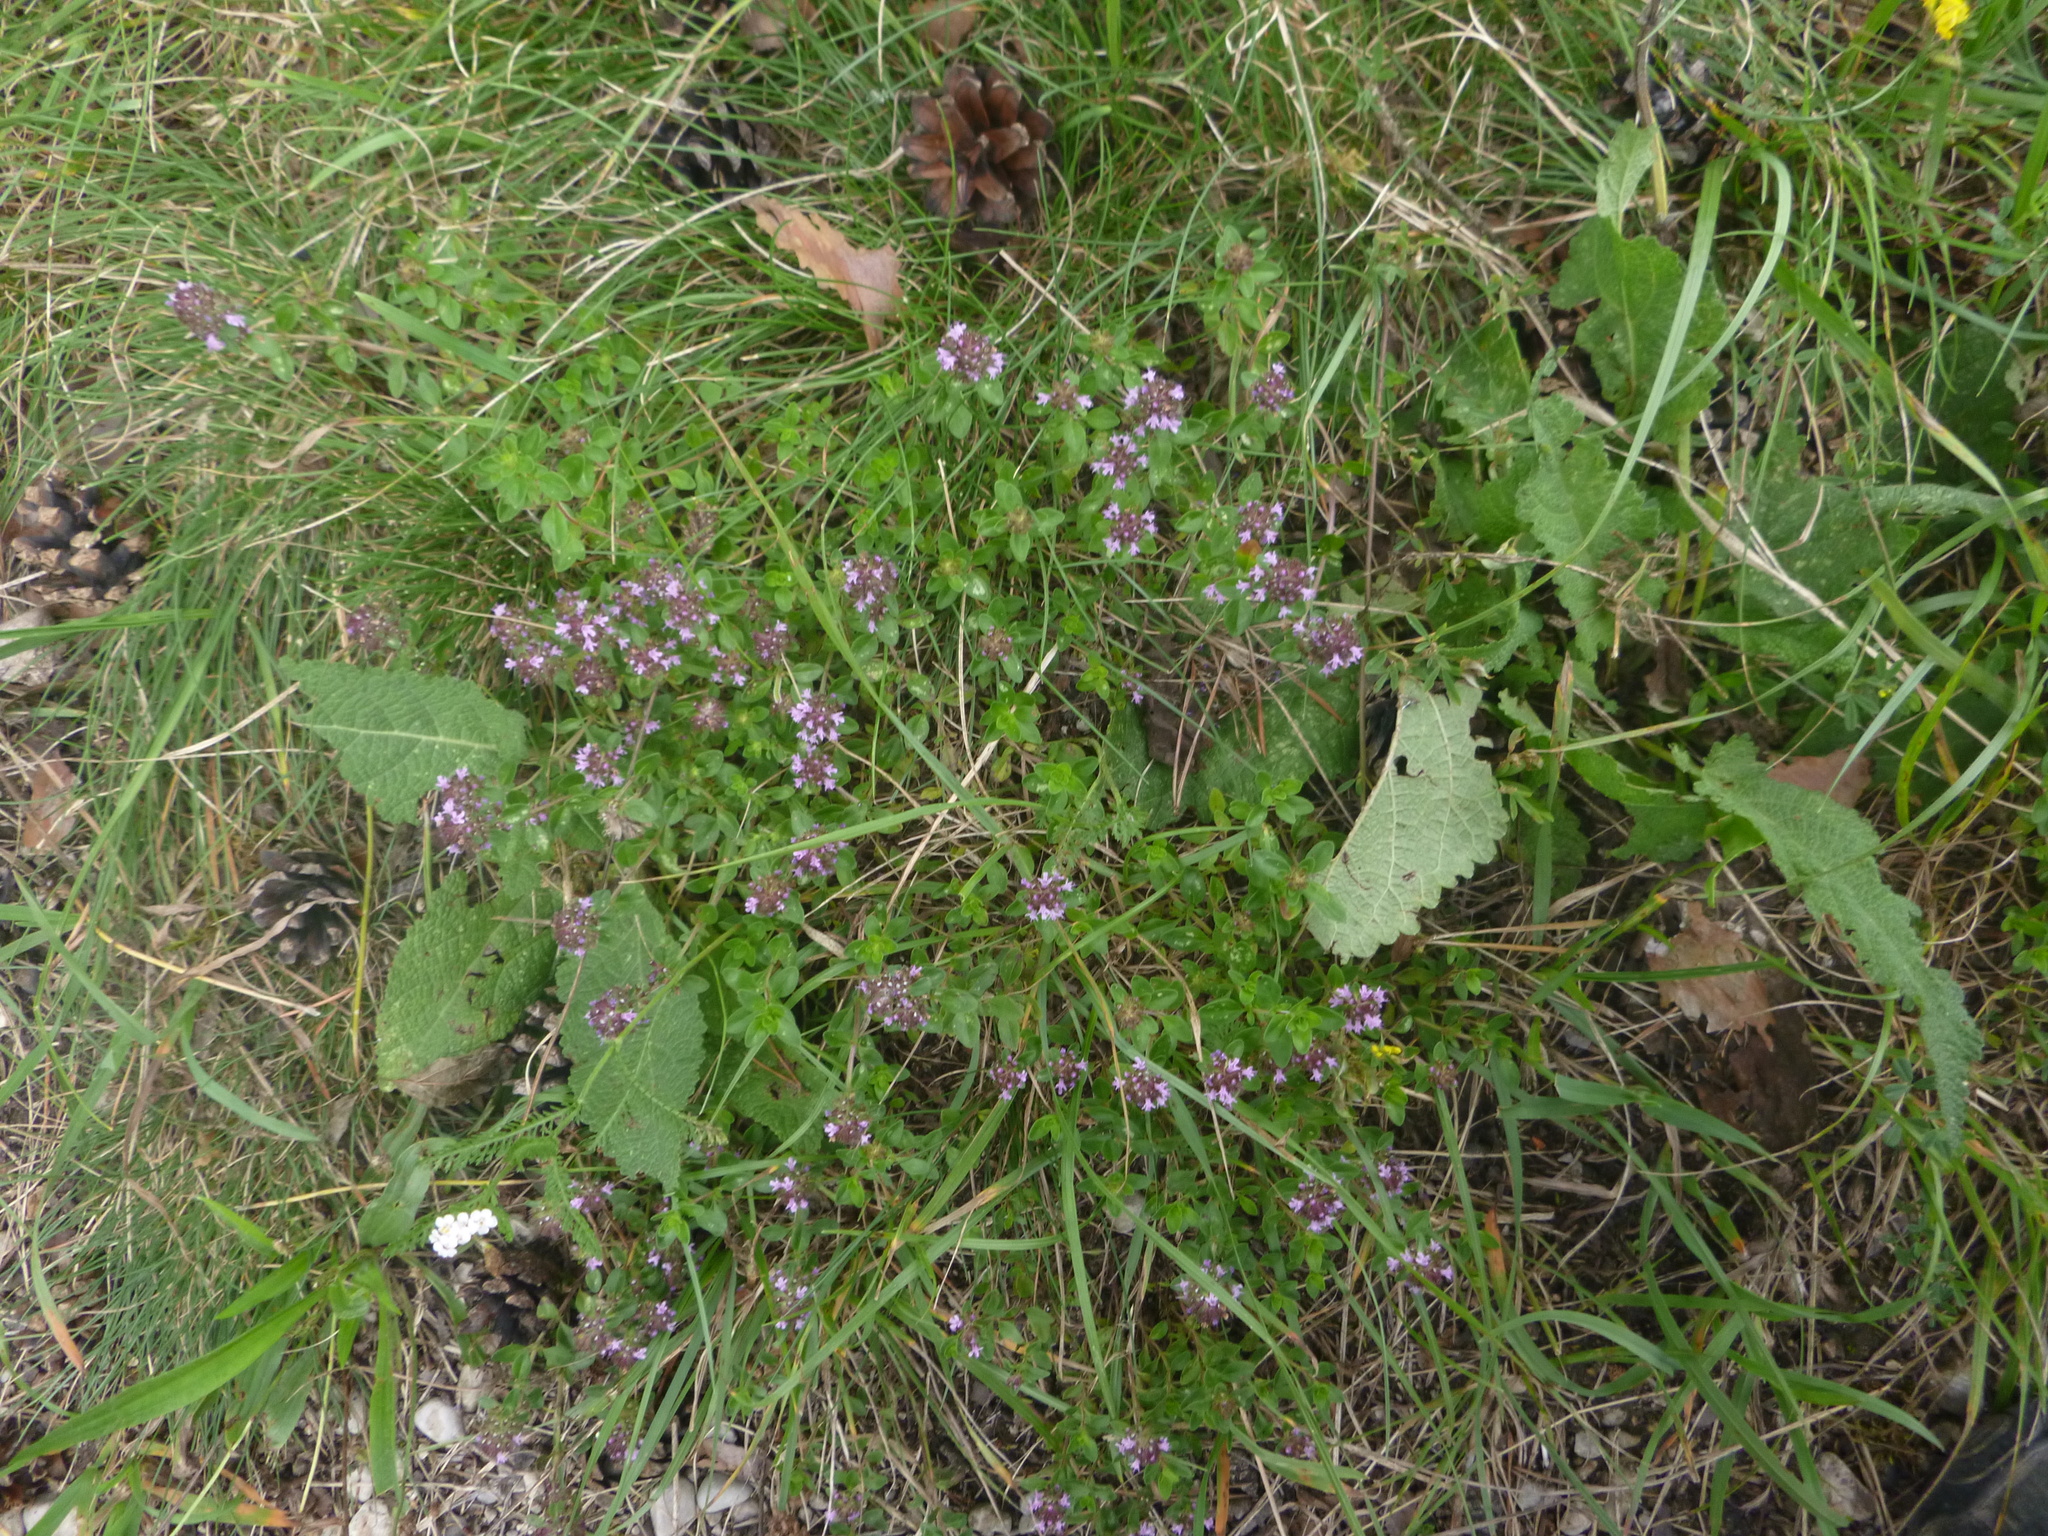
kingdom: Plantae
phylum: Tracheophyta
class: Magnoliopsida
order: Lamiales
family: Lamiaceae
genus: Thymus
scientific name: Thymus pulegioides
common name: Large thyme
